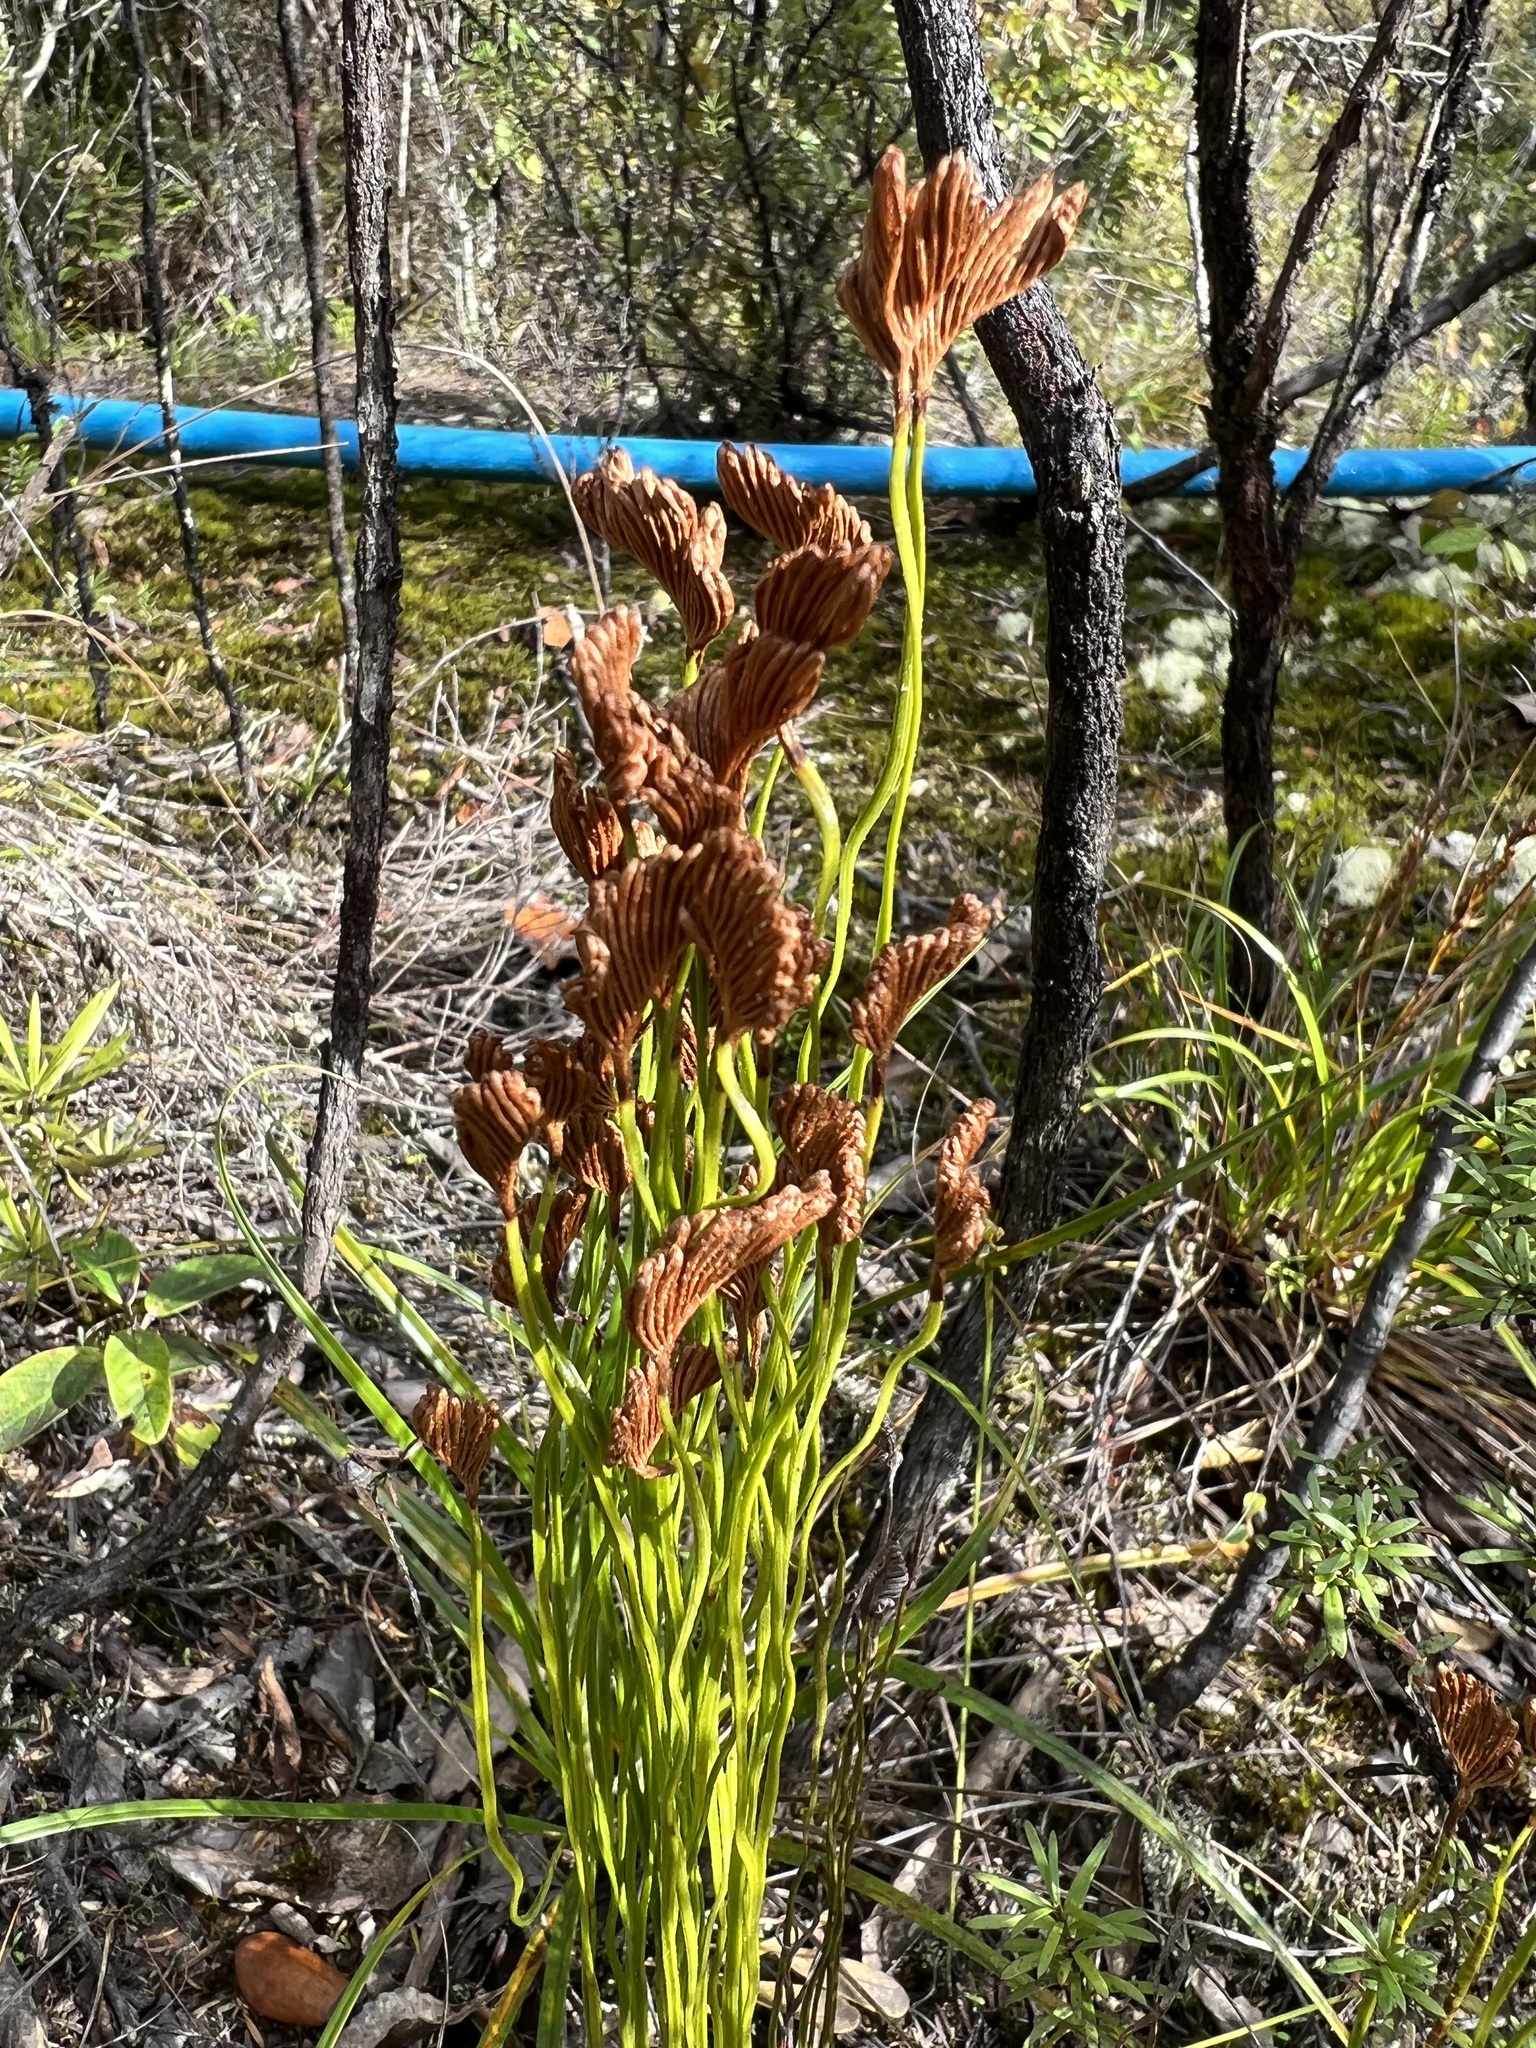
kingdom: Plantae
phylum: Tracheophyta
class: Polypodiopsida
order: Schizaeales
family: Schizaeaceae
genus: Microschizaea
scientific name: Microschizaea fistulosa
